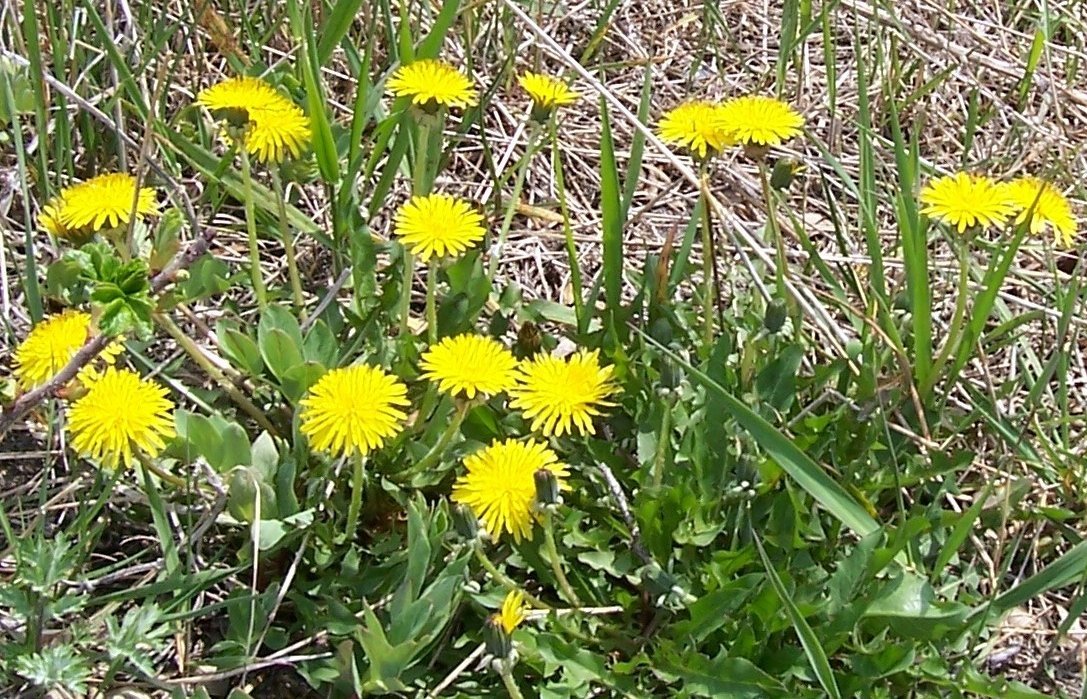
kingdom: Plantae
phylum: Tracheophyta
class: Magnoliopsida
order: Asterales
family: Asteraceae
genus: Taraxacum
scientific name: Taraxacum officinale
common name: Common dandelion
